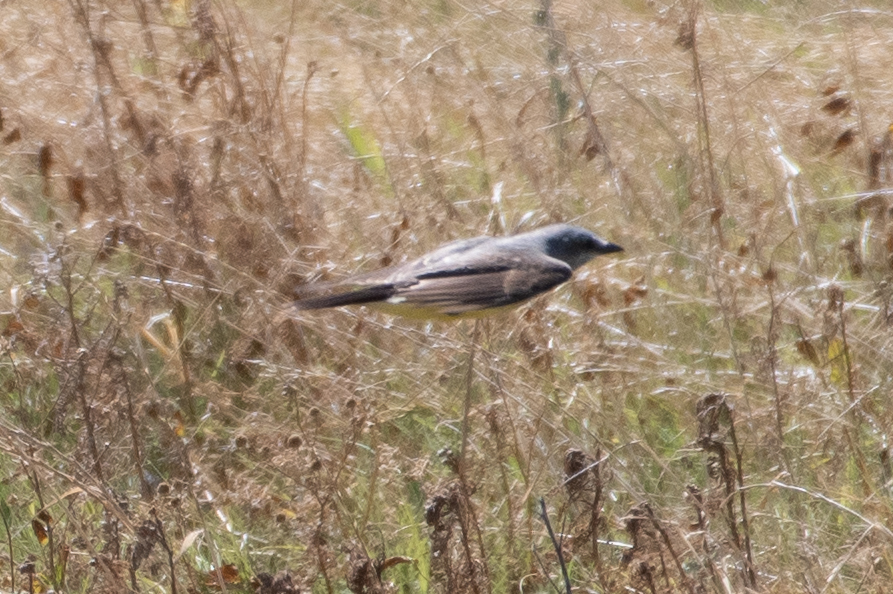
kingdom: Animalia
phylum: Chordata
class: Aves
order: Passeriformes
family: Tyrannidae
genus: Tyrannus
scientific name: Tyrannus verticalis
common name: Western kingbird
